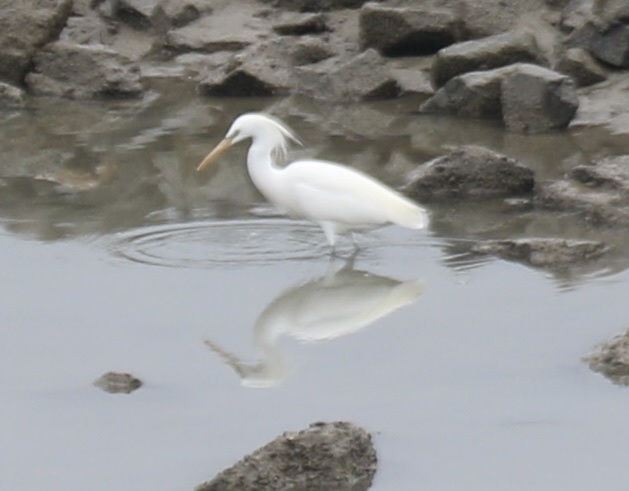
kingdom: Animalia
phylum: Chordata
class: Aves
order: Pelecaniformes
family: Ardeidae
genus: Egretta
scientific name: Egretta eulophotes
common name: Chinese egret
